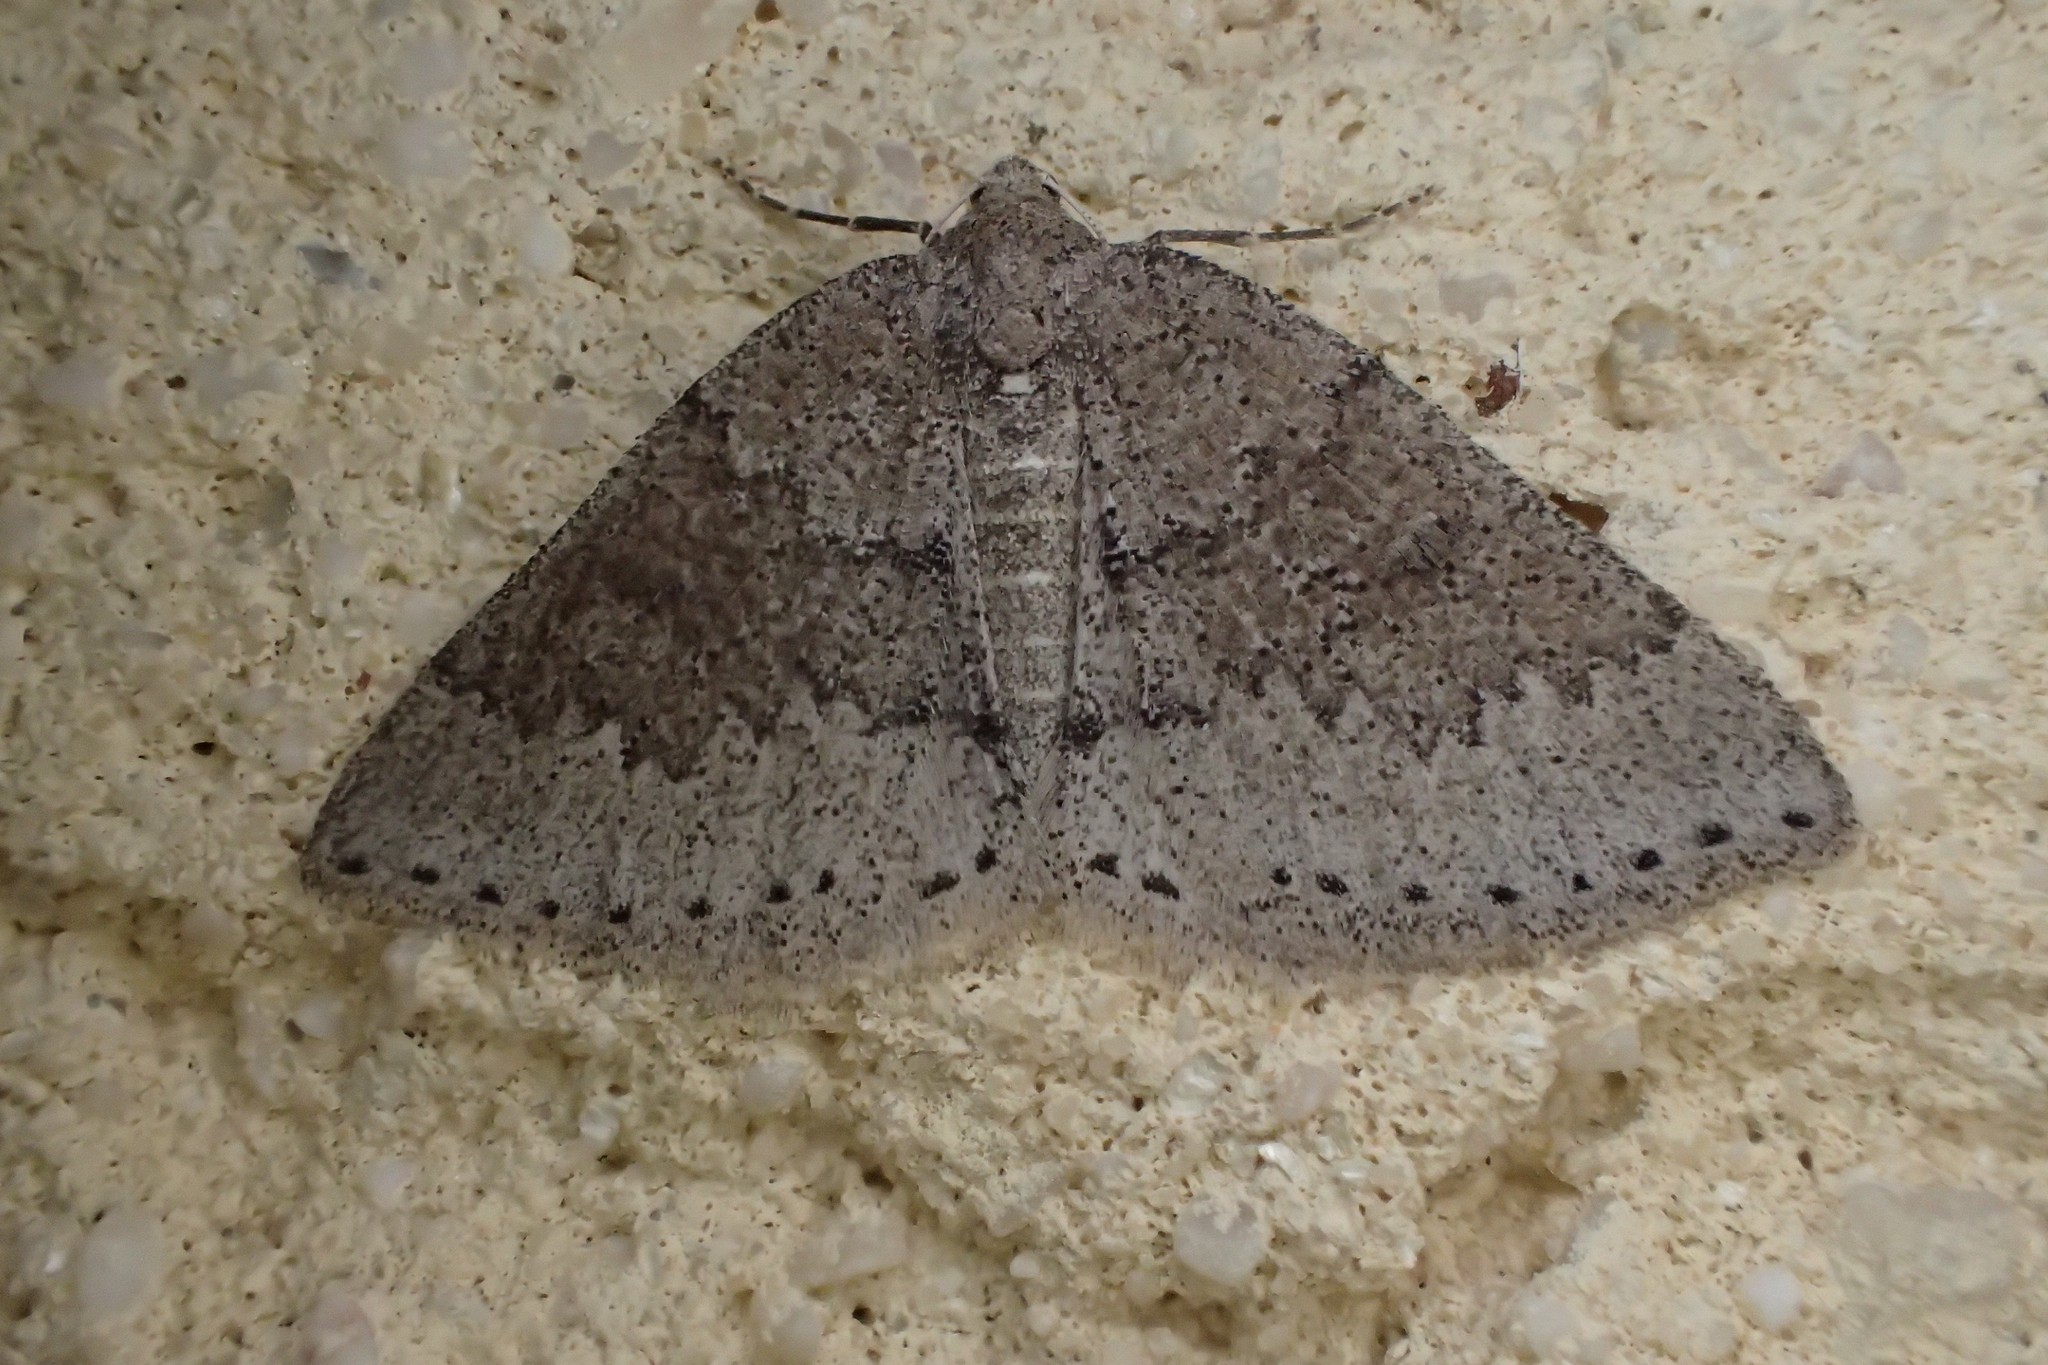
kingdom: Animalia
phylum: Arthropoda
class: Insecta
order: Lepidoptera
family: Geometridae
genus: Aleucis
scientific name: Aleucis distinctata
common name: Sloe carpet
